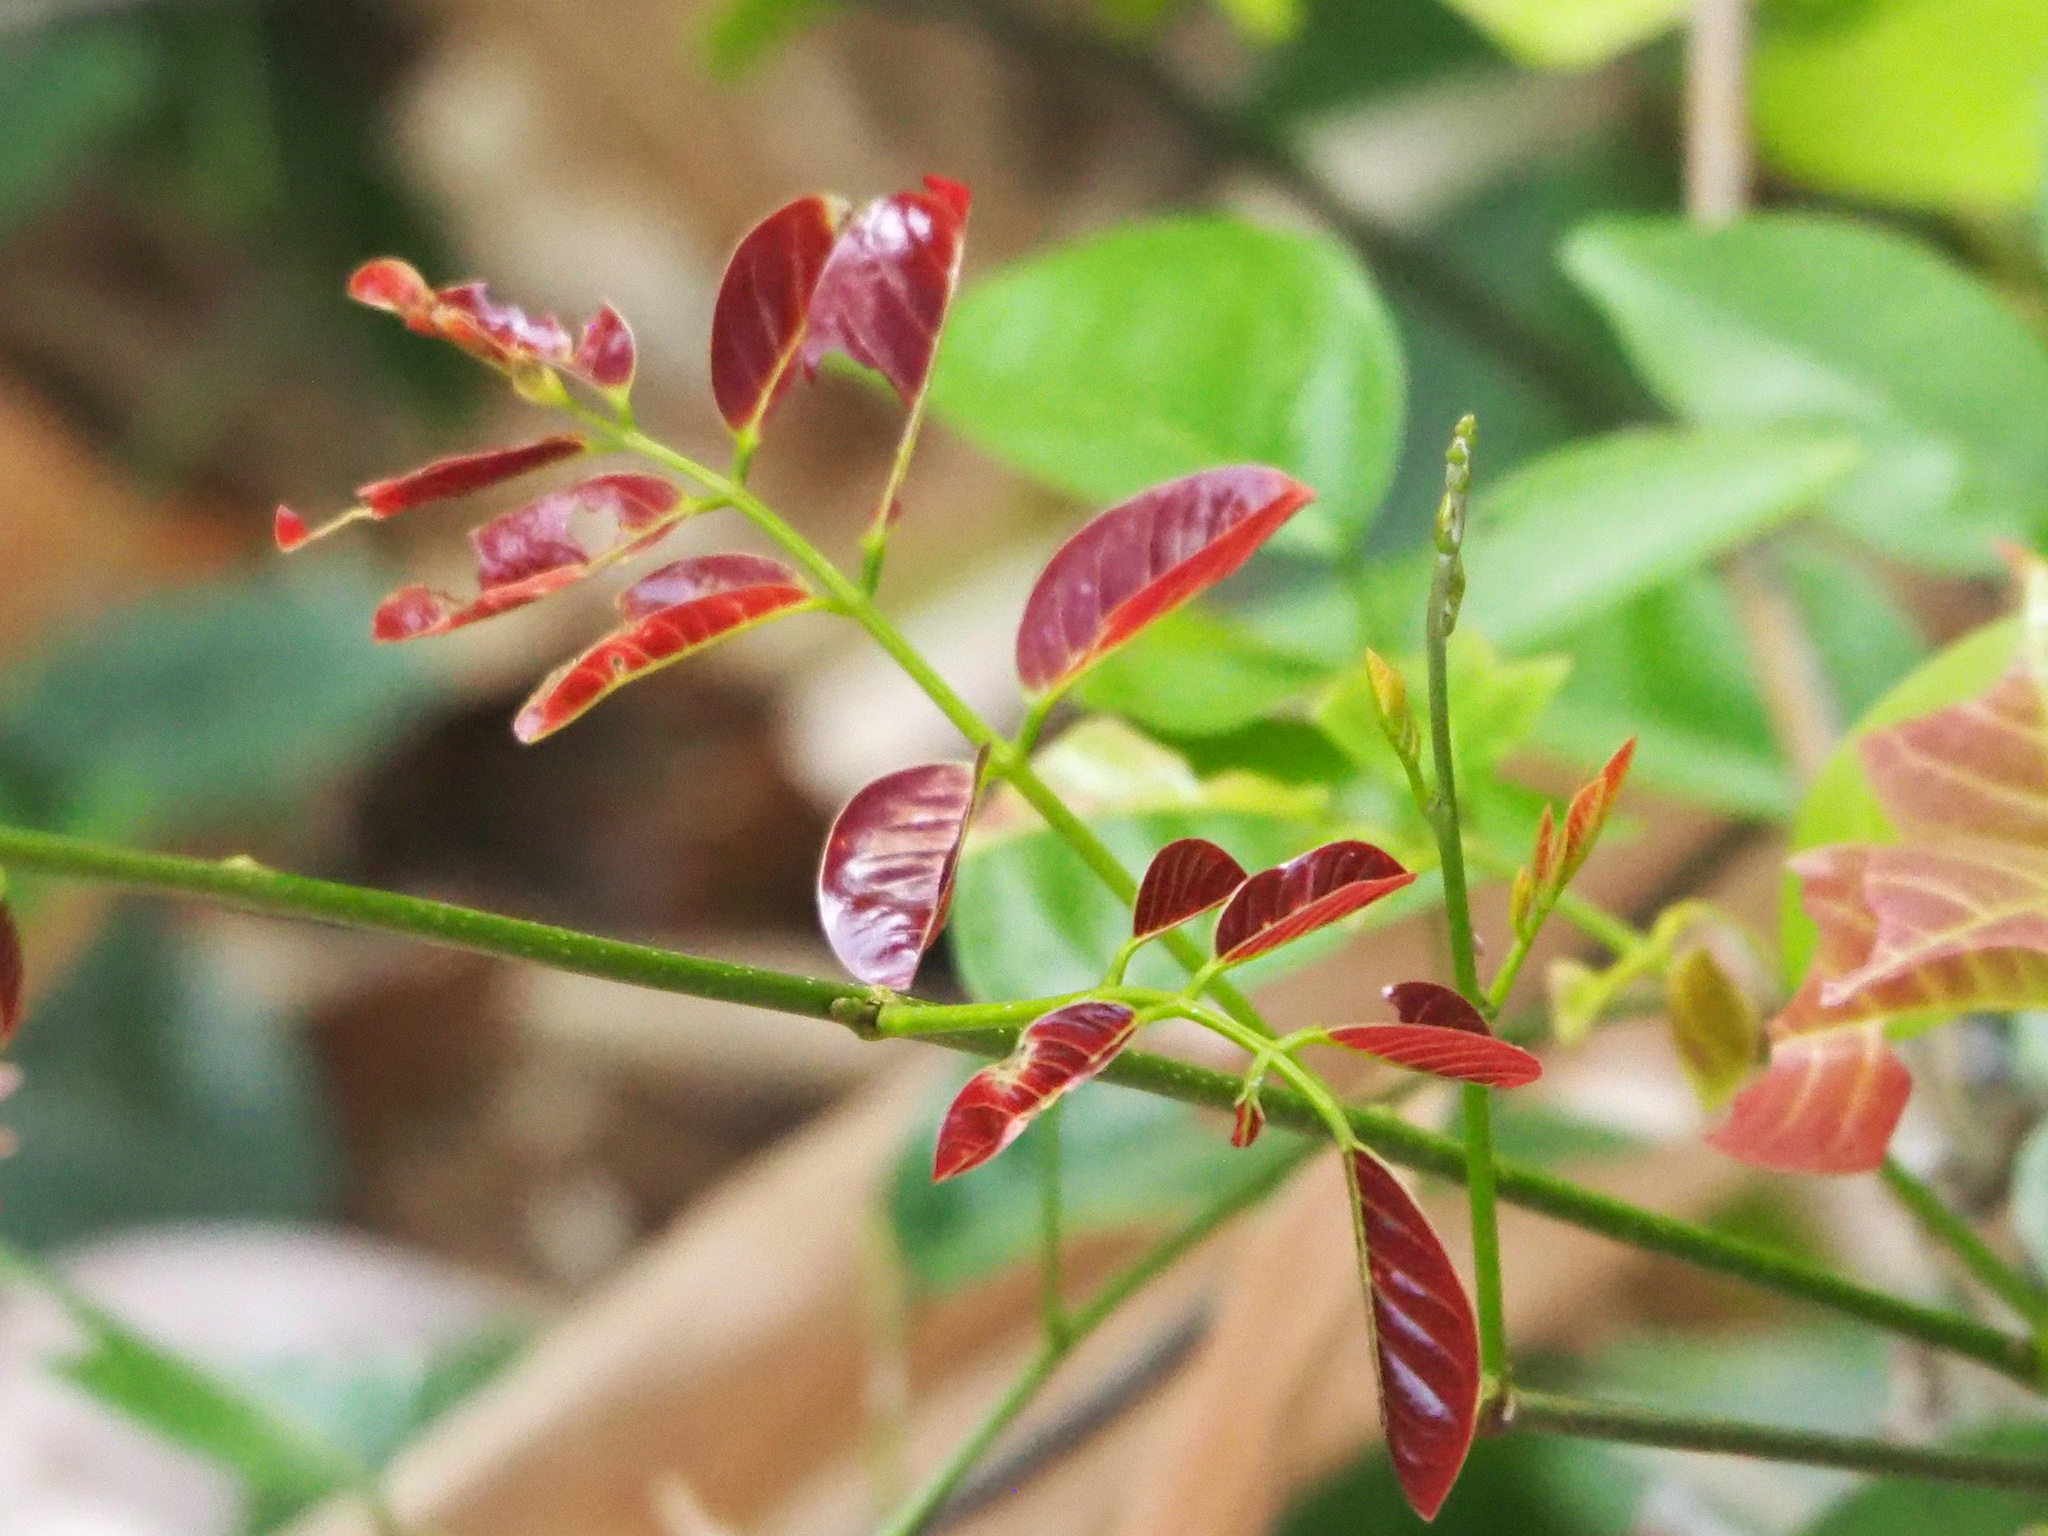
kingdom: Plantae
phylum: Tracheophyta
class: Magnoliopsida
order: Fabales
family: Fabaceae
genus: Derris
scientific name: Derris laxiflora
